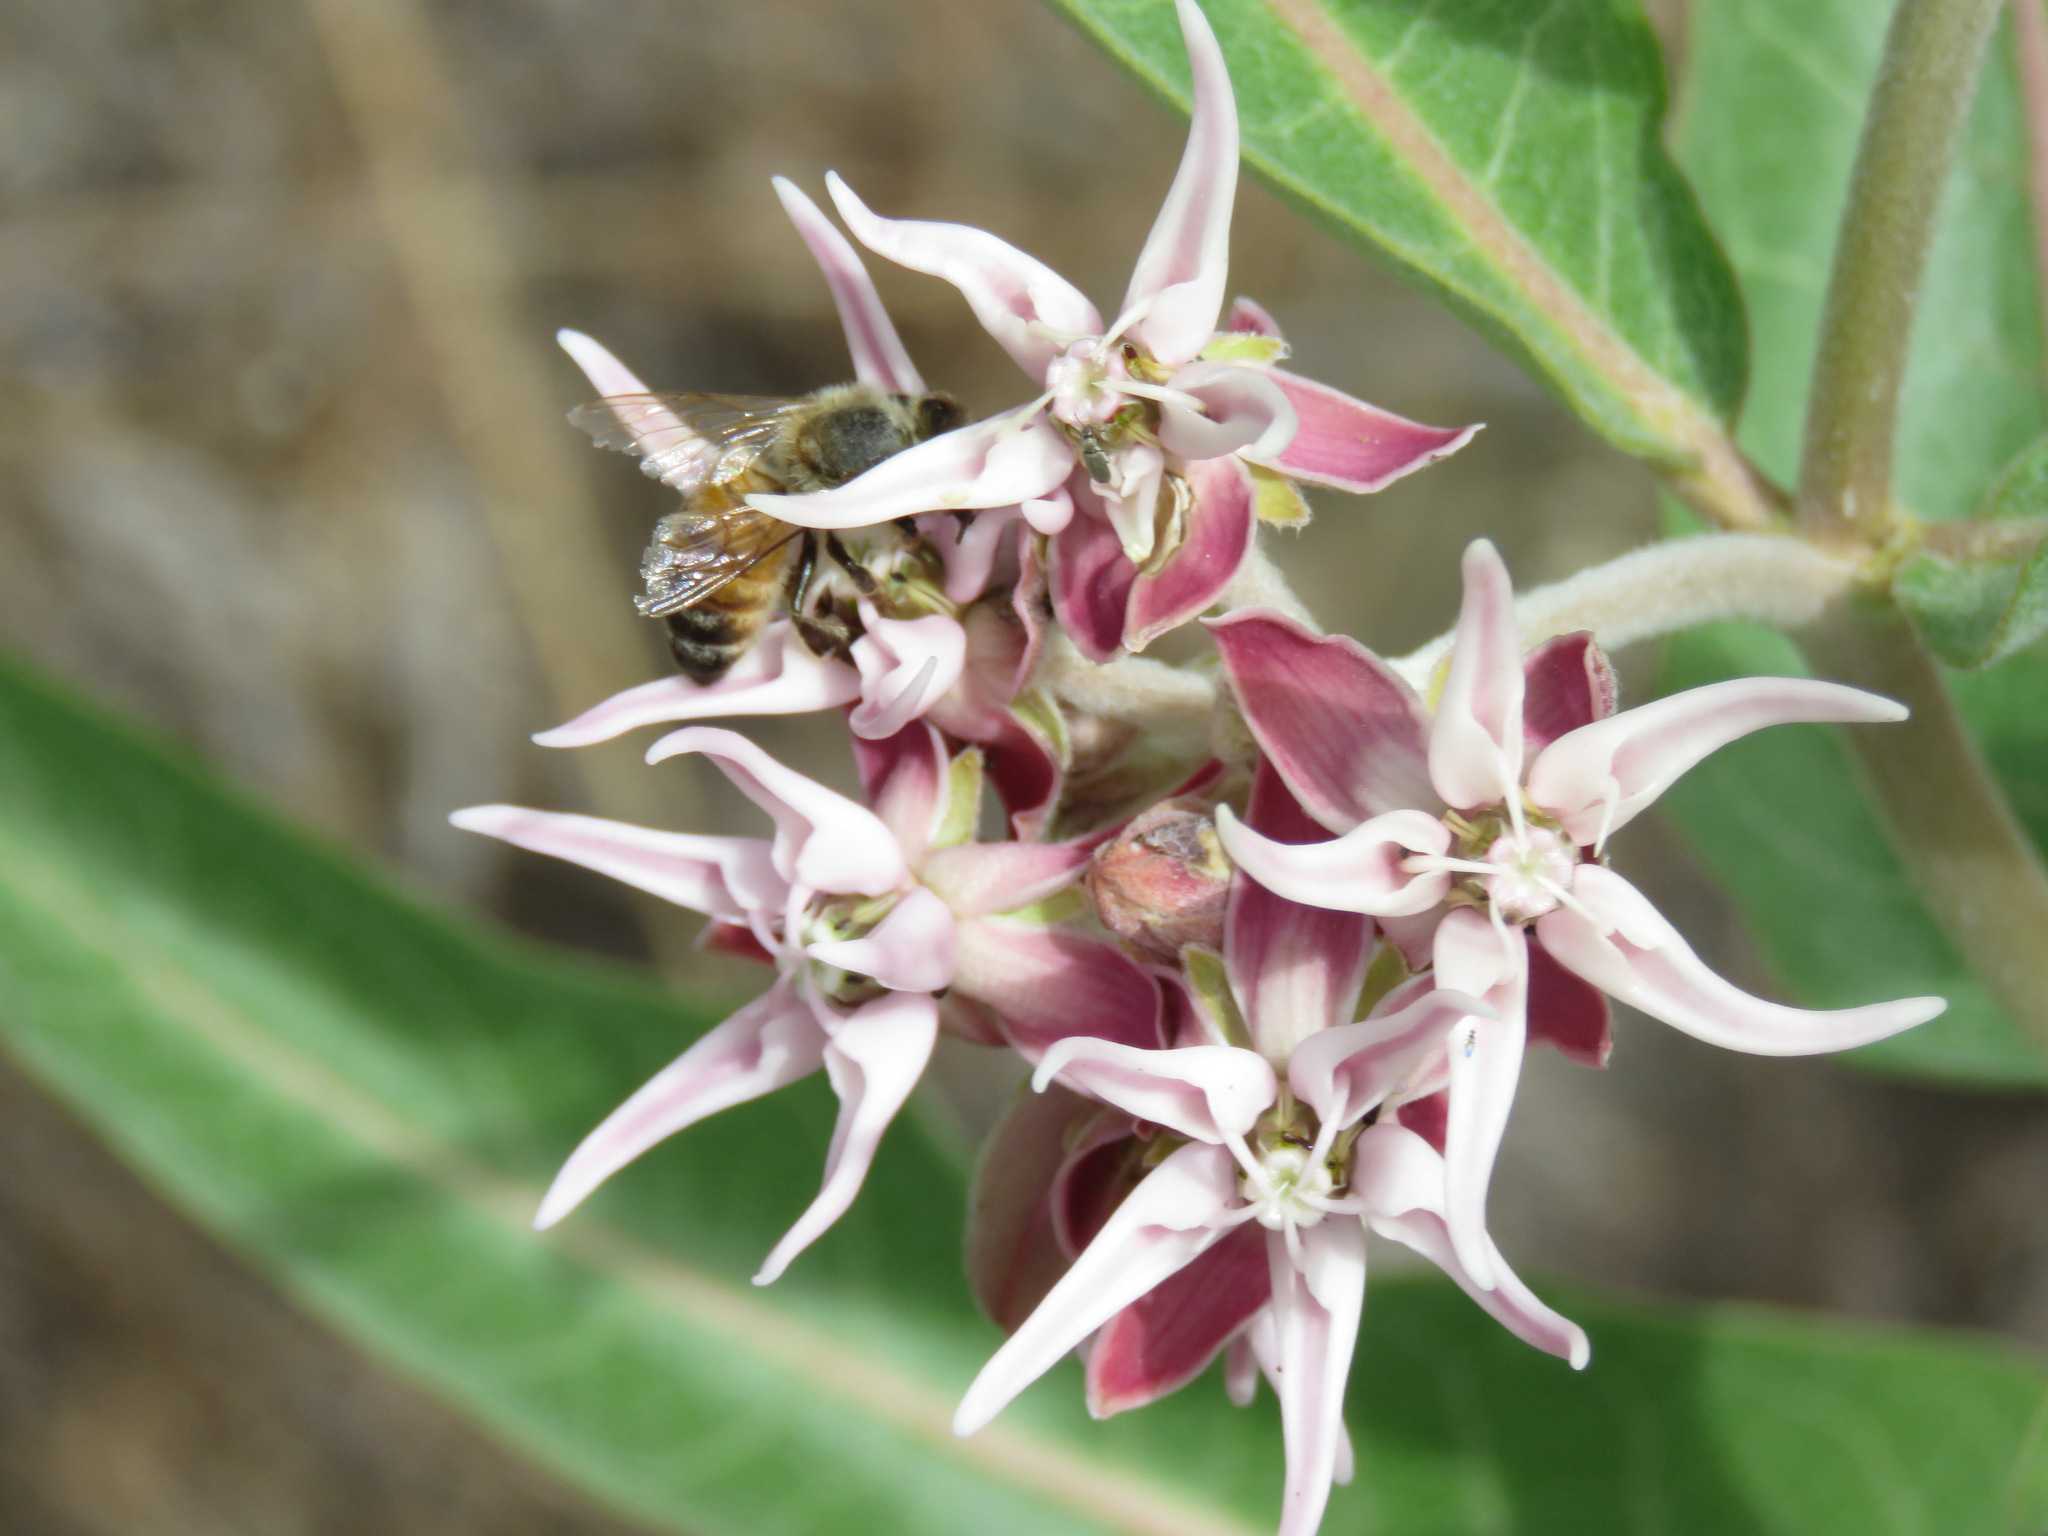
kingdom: Animalia
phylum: Arthropoda
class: Insecta
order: Hymenoptera
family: Apidae
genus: Apis
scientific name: Apis mellifera
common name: Honey bee
